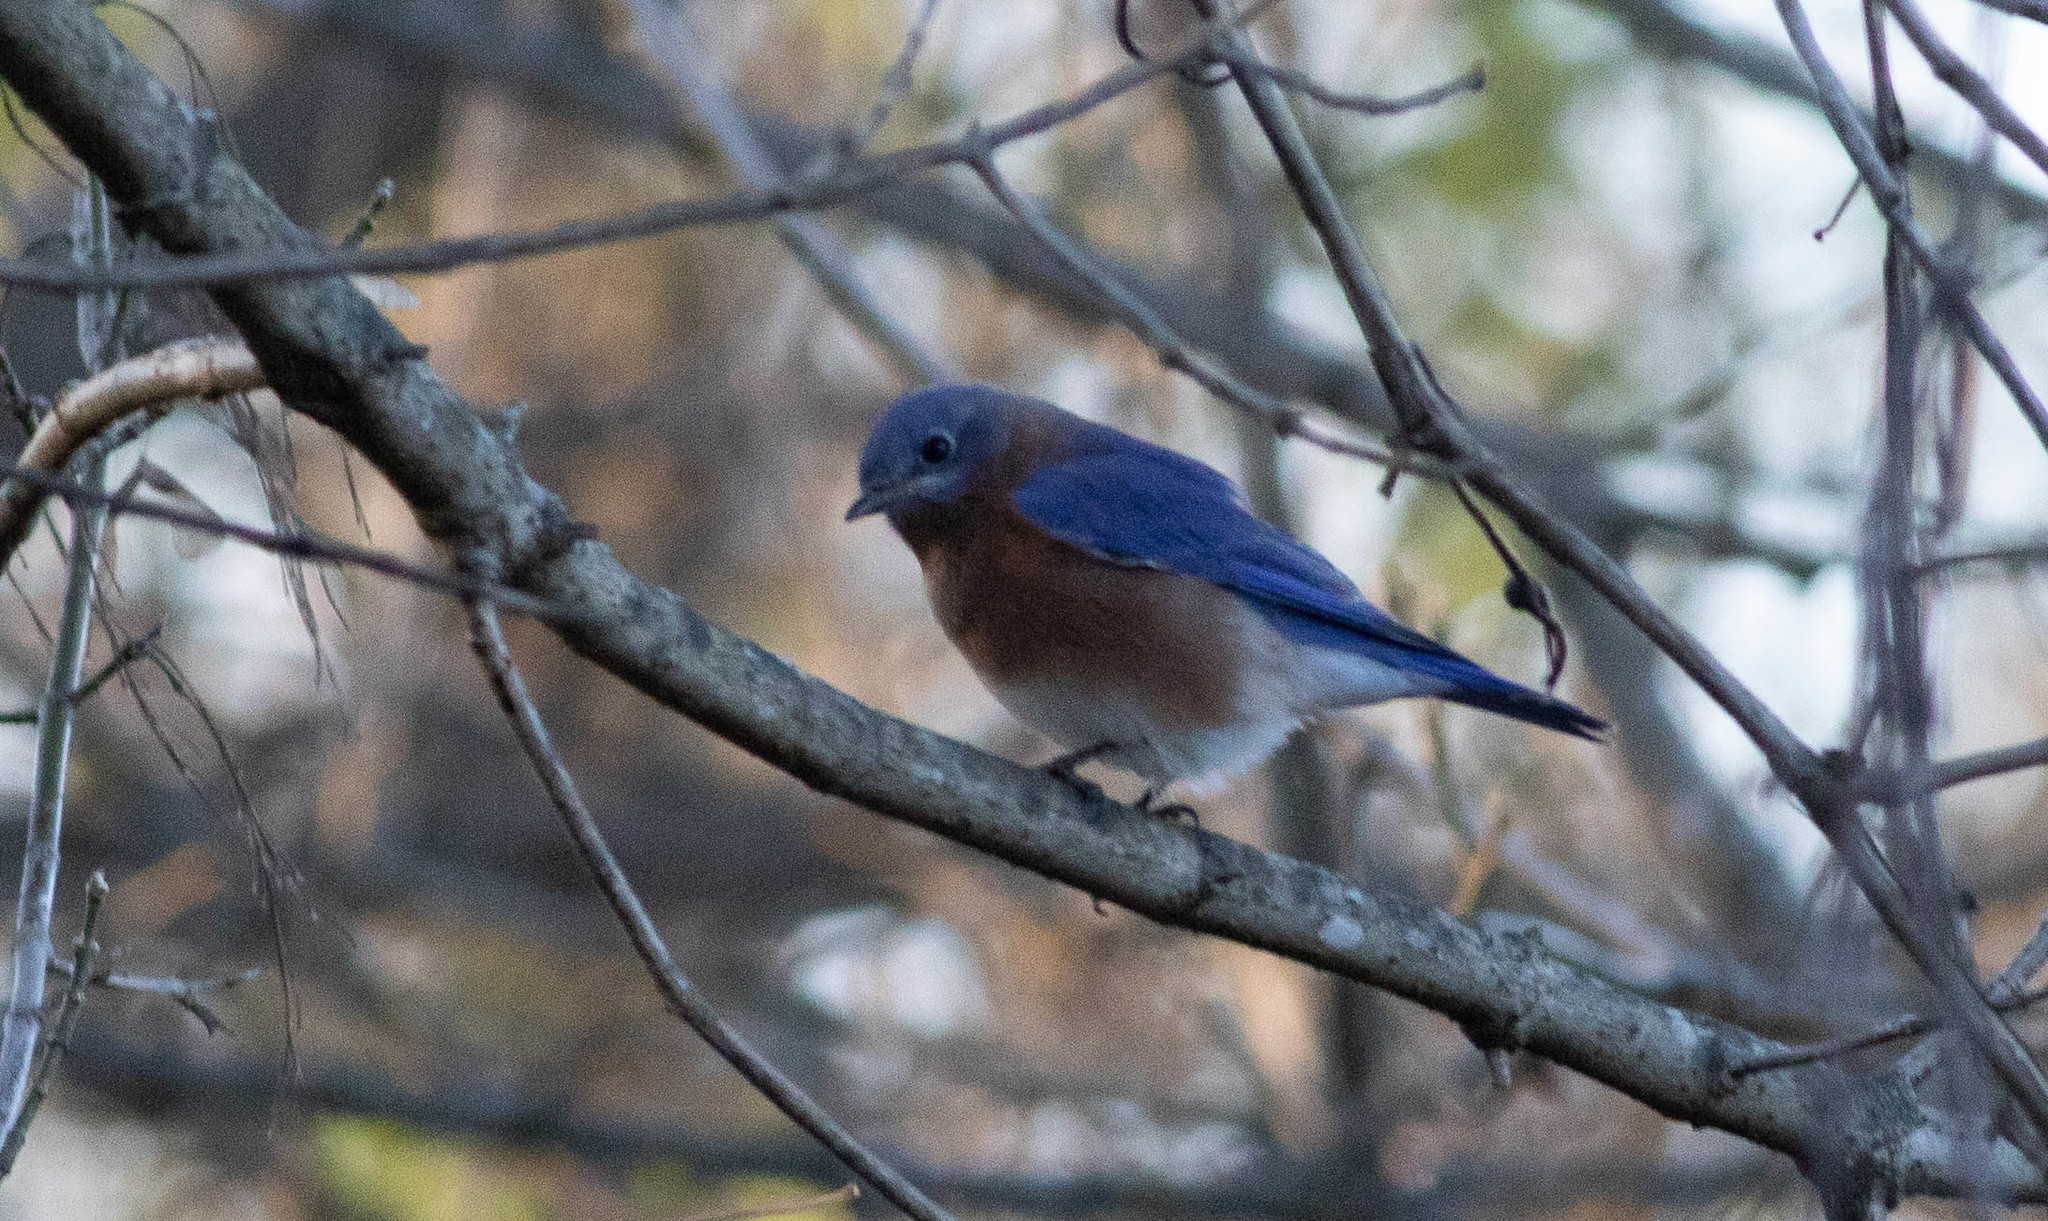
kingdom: Animalia
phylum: Chordata
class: Aves
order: Passeriformes
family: Turdidae
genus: Sialia
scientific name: Sialia sialis
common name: Eastern bluebird
